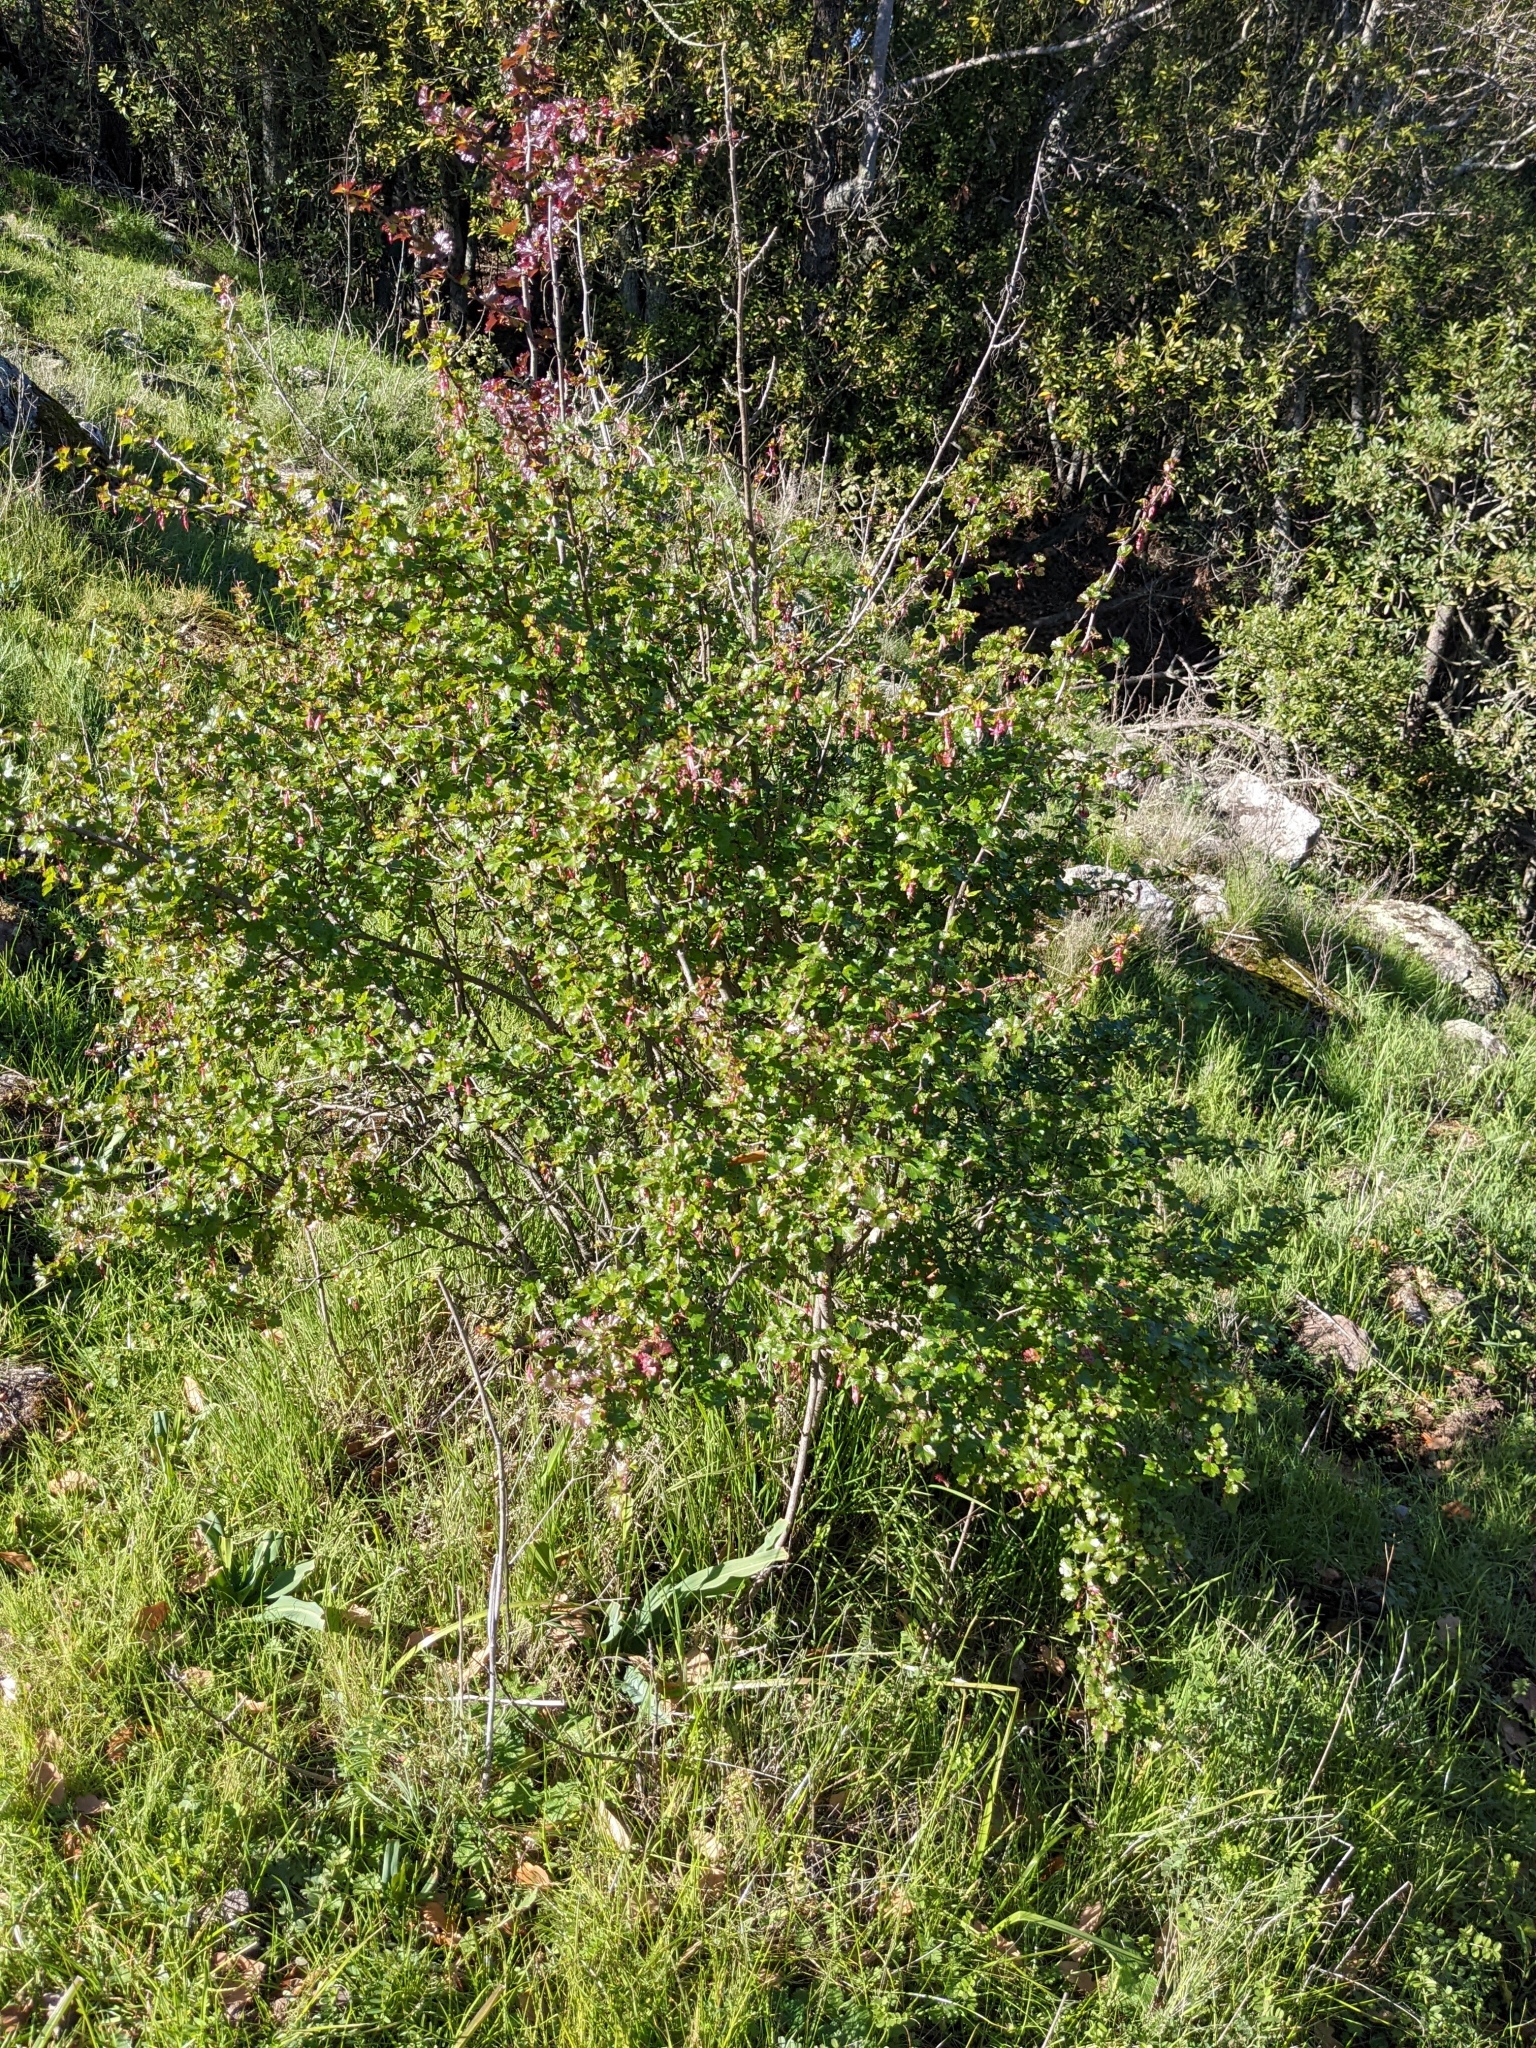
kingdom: Plantae
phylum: Tracheophyta
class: Magnoliopsida
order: Saxifragales
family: Grossulariaceae
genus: Ribes
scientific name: Ribes californicum
